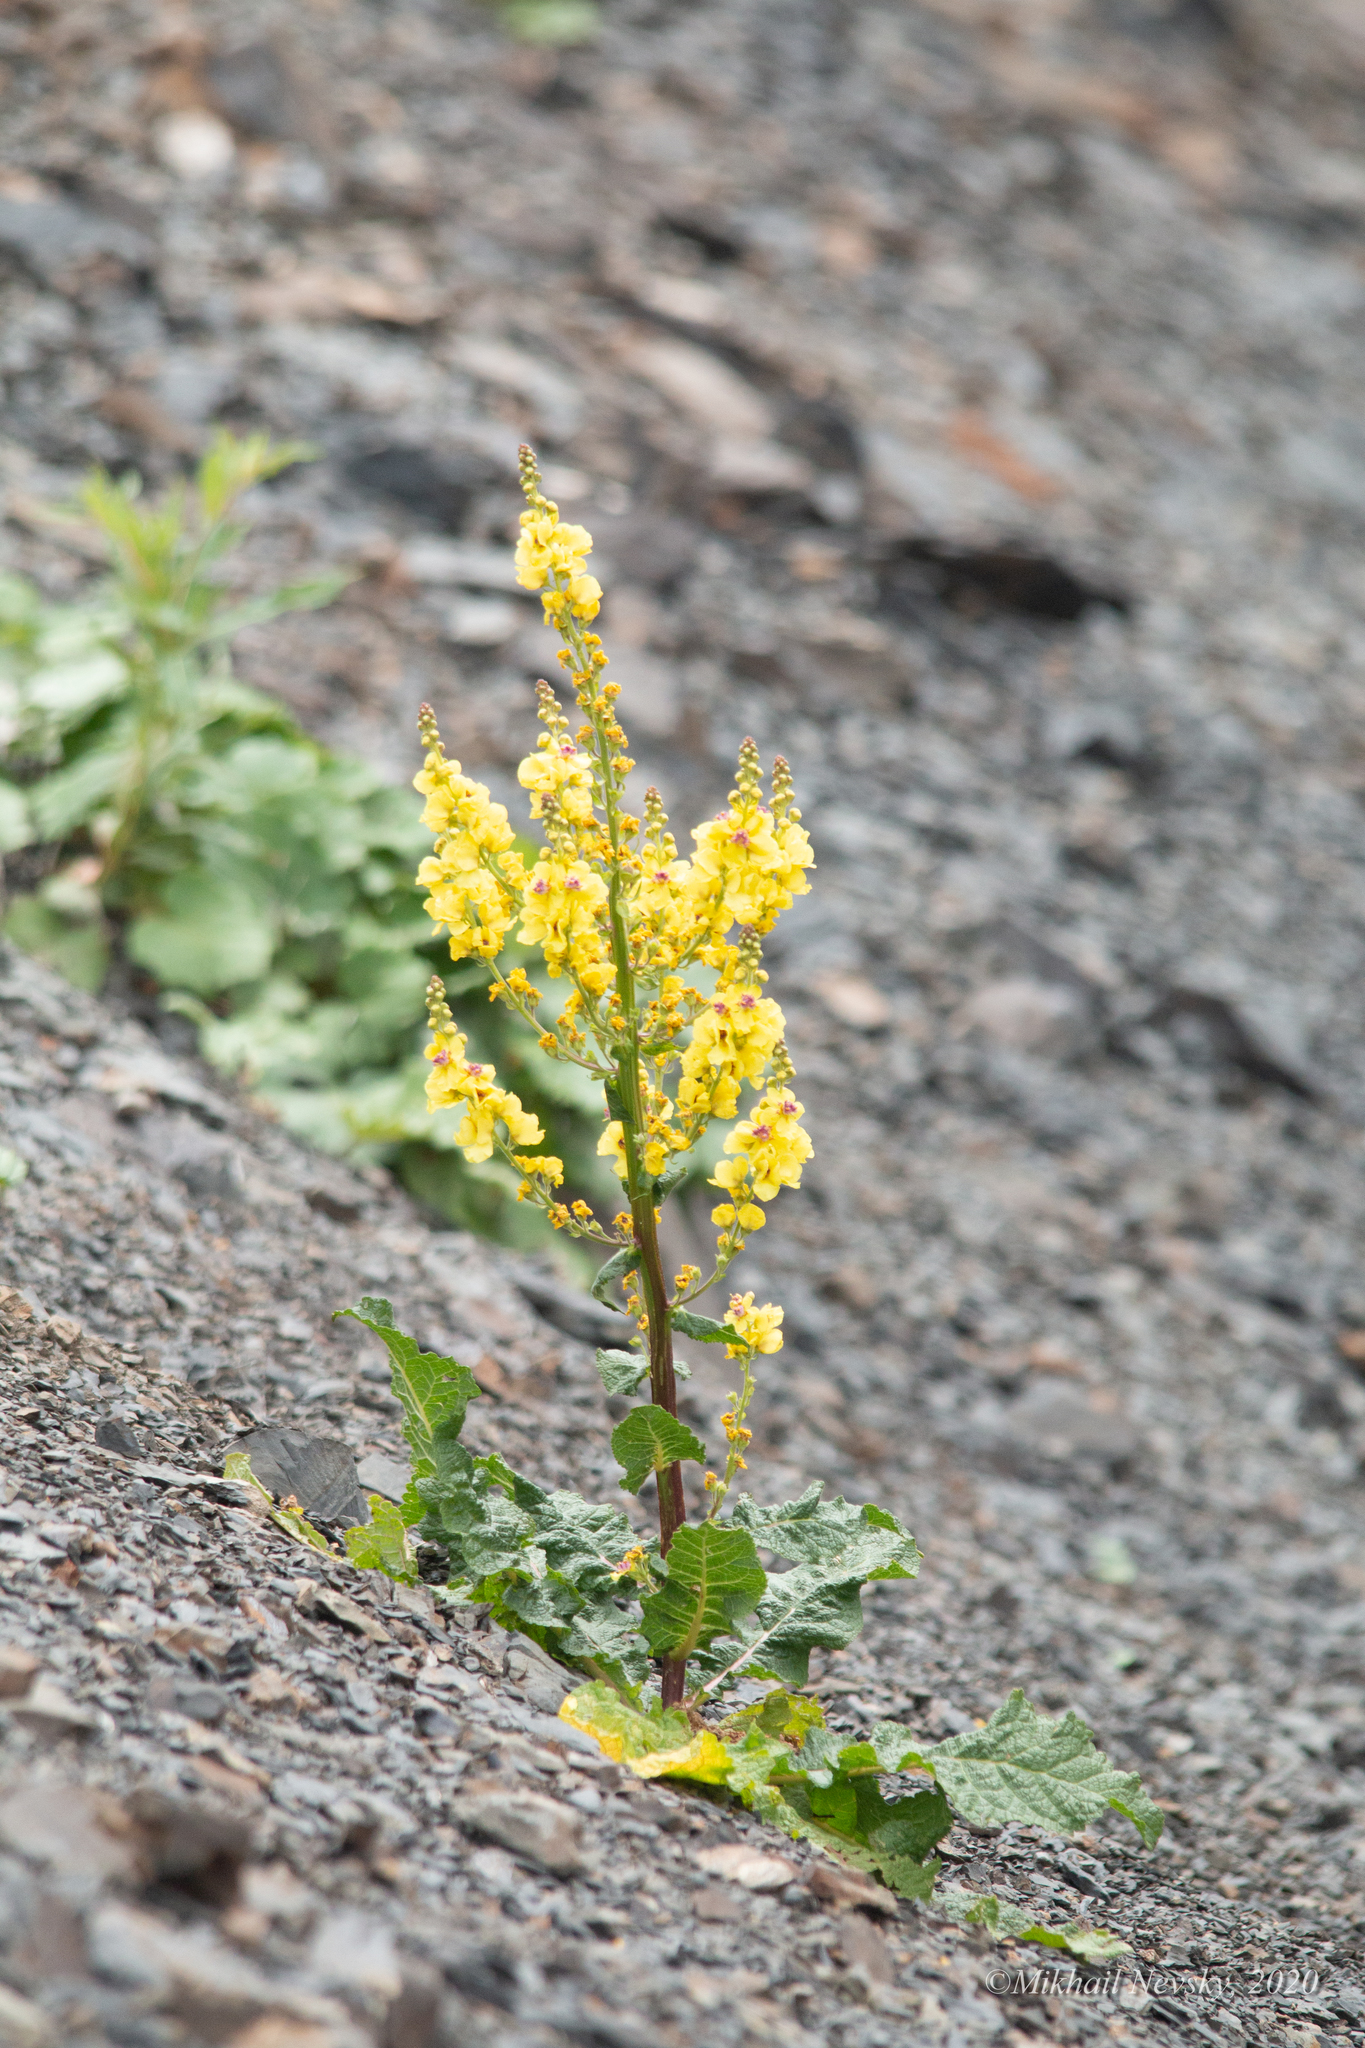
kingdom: Plantae
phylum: Tracheophyta
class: Magnoliopsida
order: Lamiales
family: Scrophulariaceae
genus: Verbascum
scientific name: Verbascum pyramidatum
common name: Caucasian mullein
